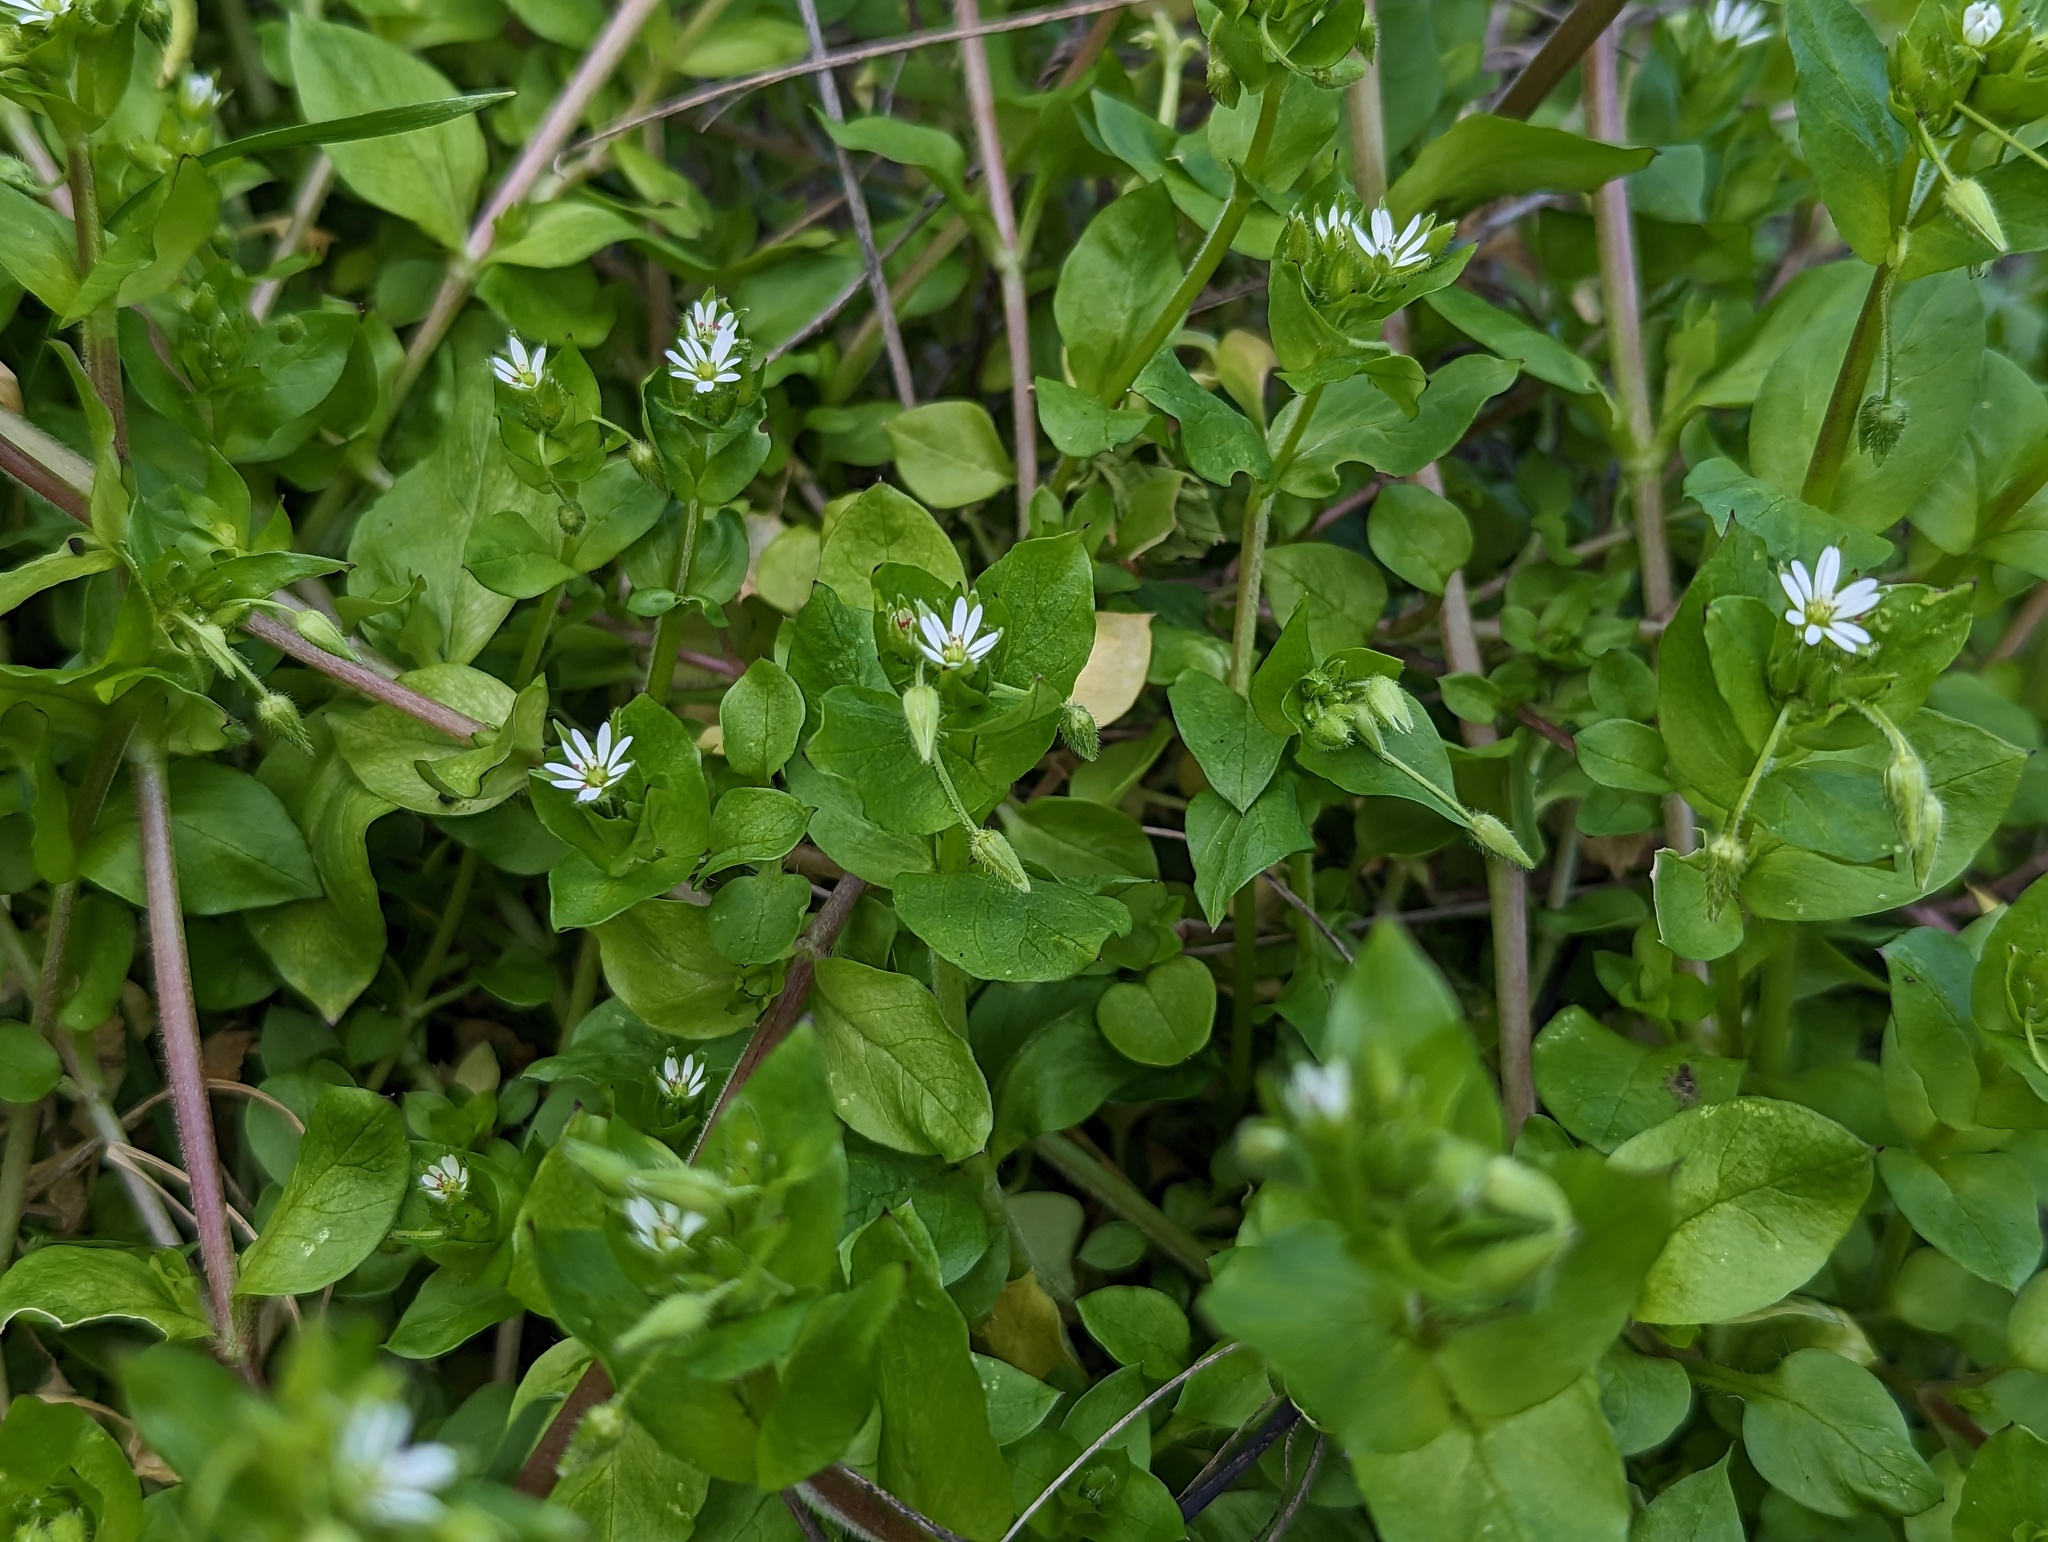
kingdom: Plantae
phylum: Tracheophyta
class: Magnoliopsida
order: Caryophyllales
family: Caryophyllaceae
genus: Stellaria
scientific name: Stellaria media
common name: Common chickweed
